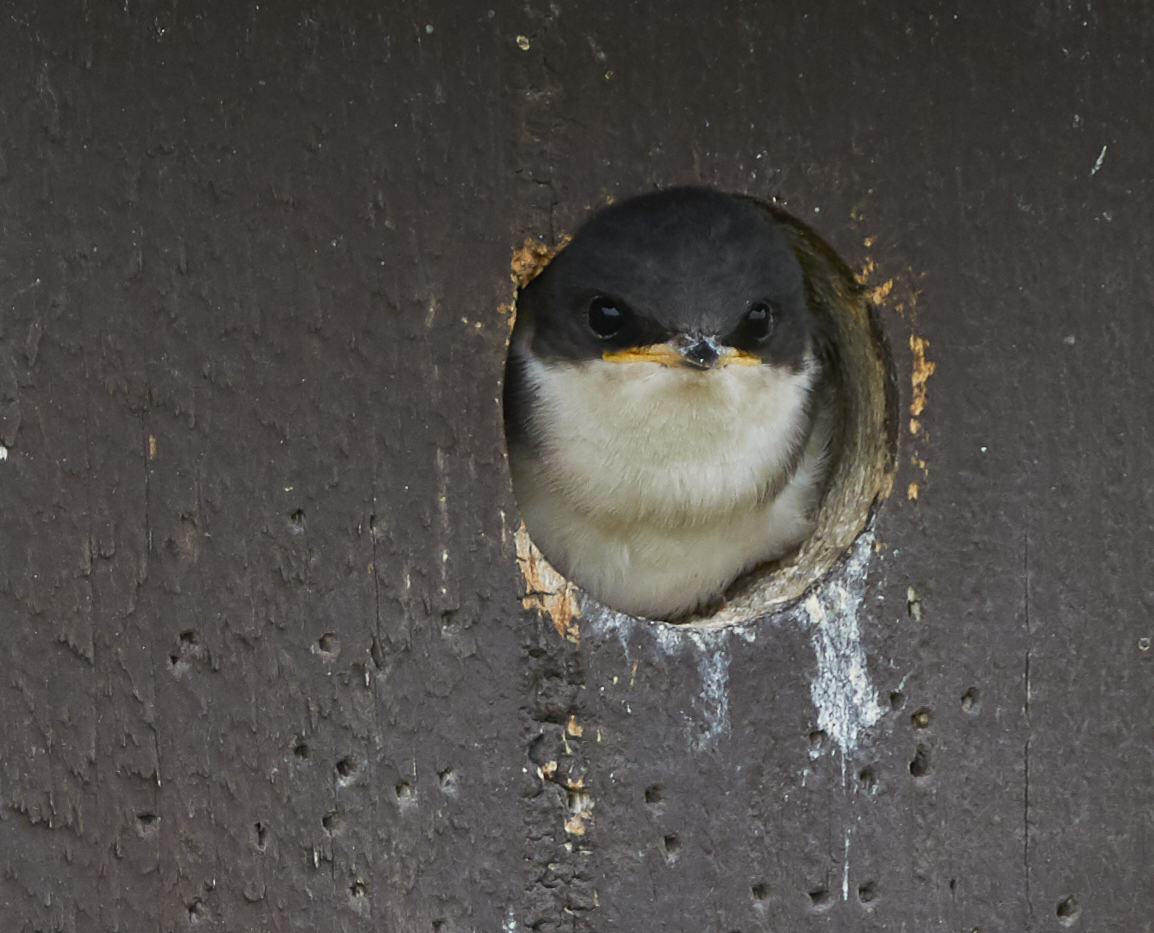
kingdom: Animalia
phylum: Chordata
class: Aves
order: Passeriformes
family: Hirundinidae
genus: Tachycineta
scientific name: Tachycineta bicolor
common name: Tree swallow
